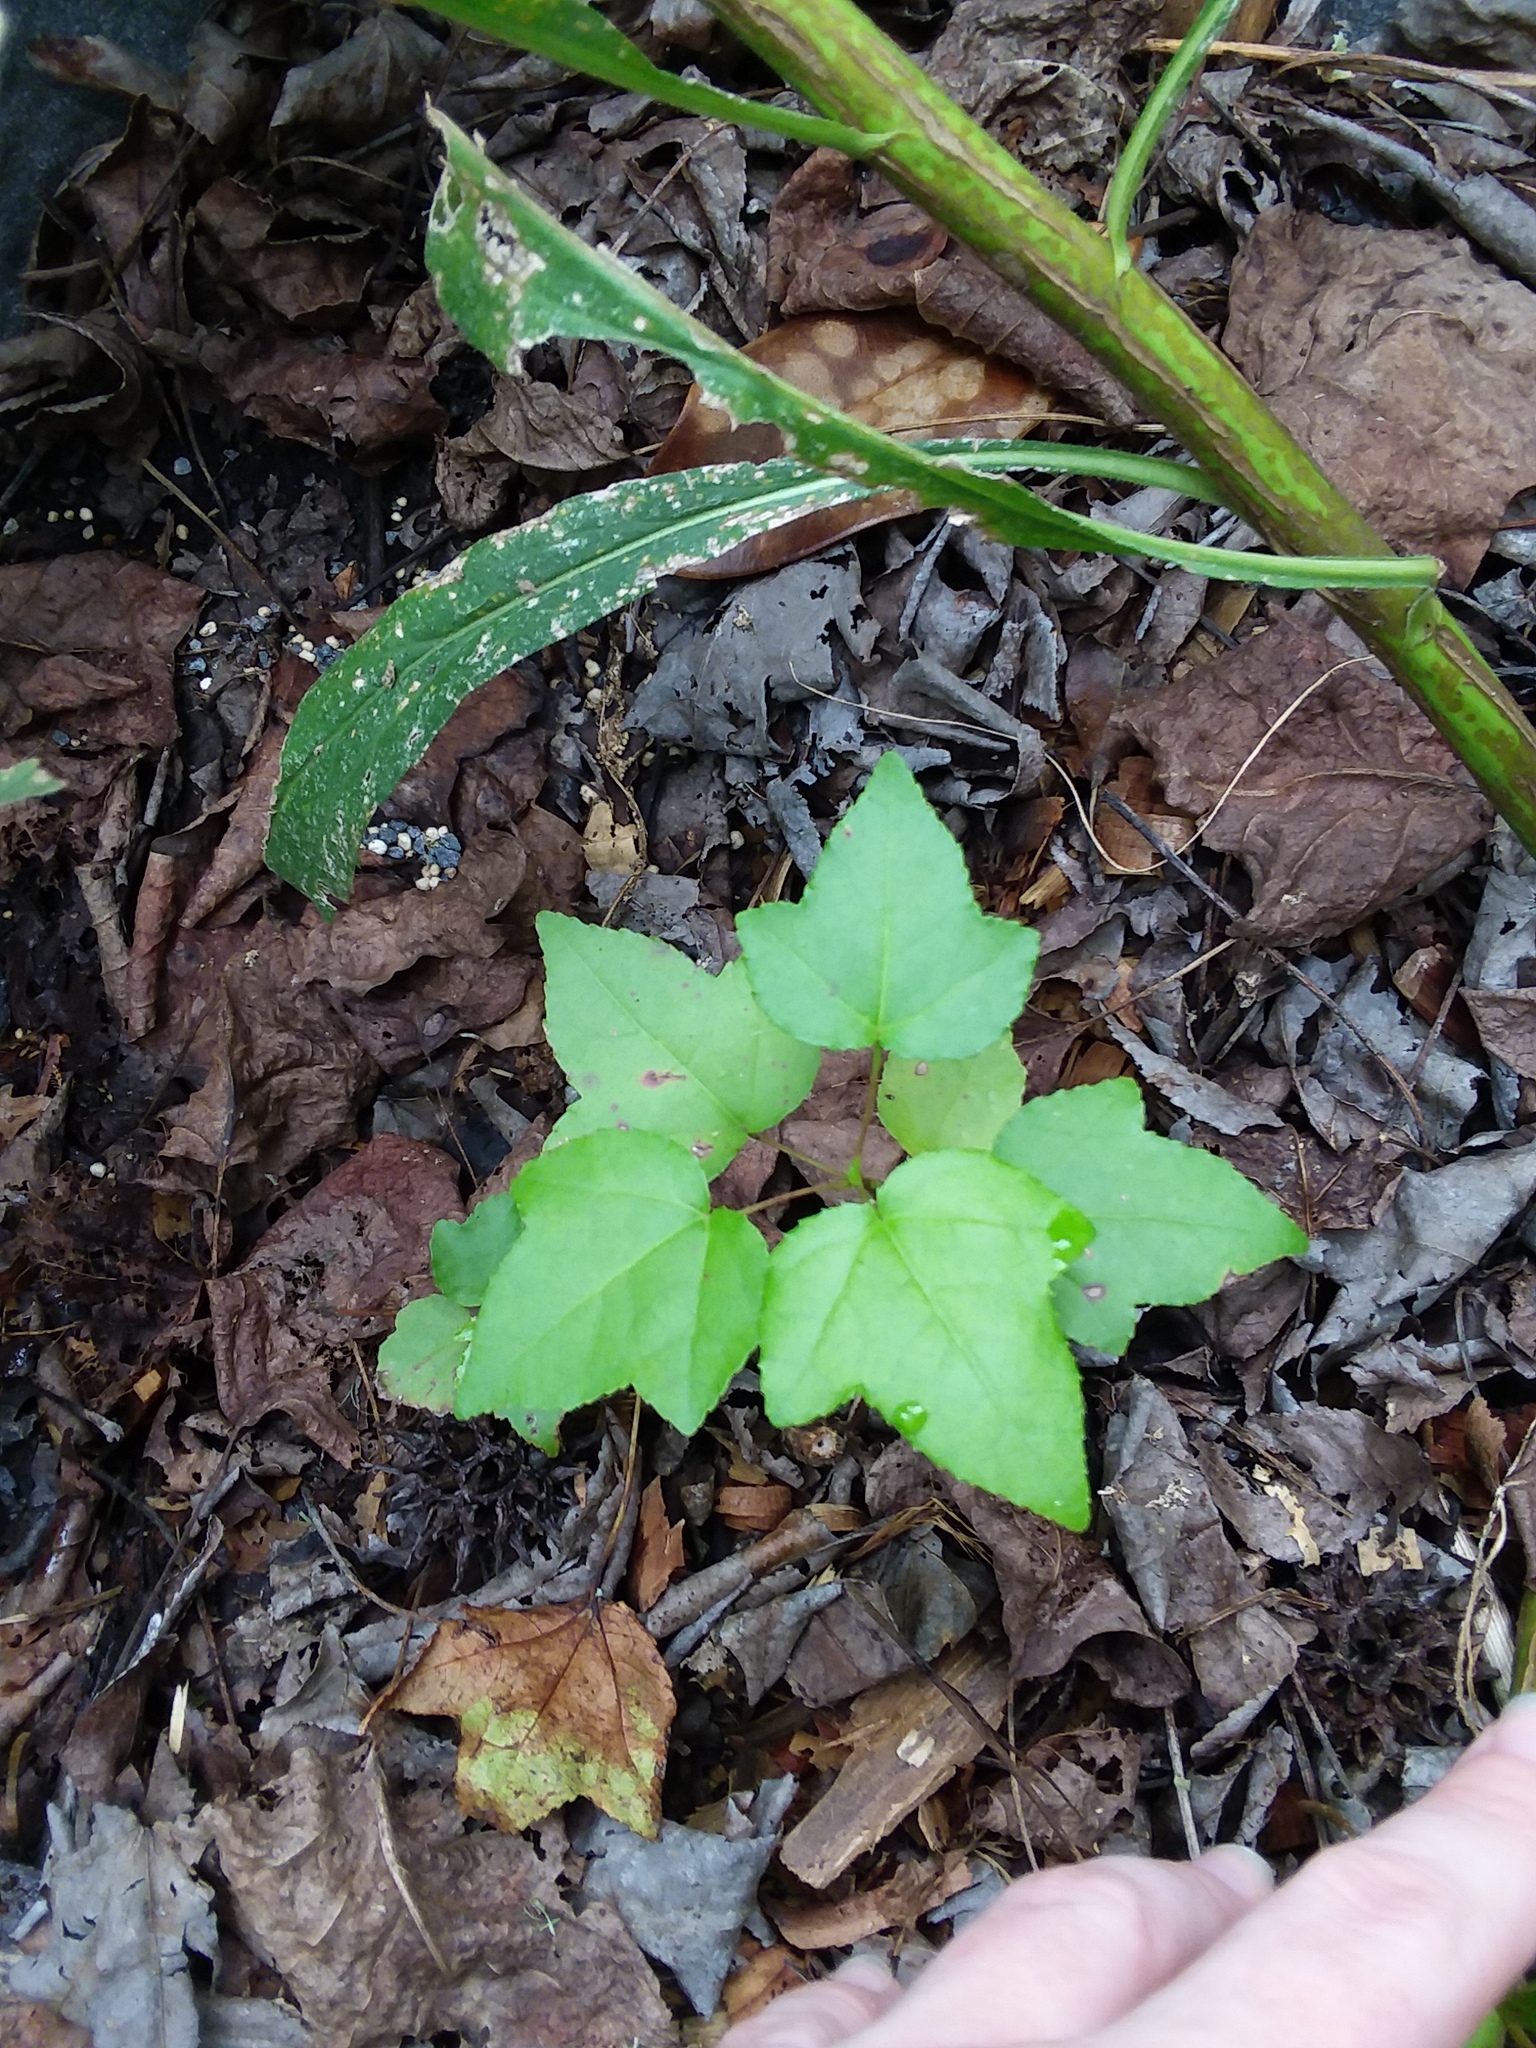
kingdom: Plantae
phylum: Tracheophyta
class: Magnoliopsida
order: Saxifragales
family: Altingiaceae
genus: Liquidambar
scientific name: Liquidambar styraciflua
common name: Sweet gum
